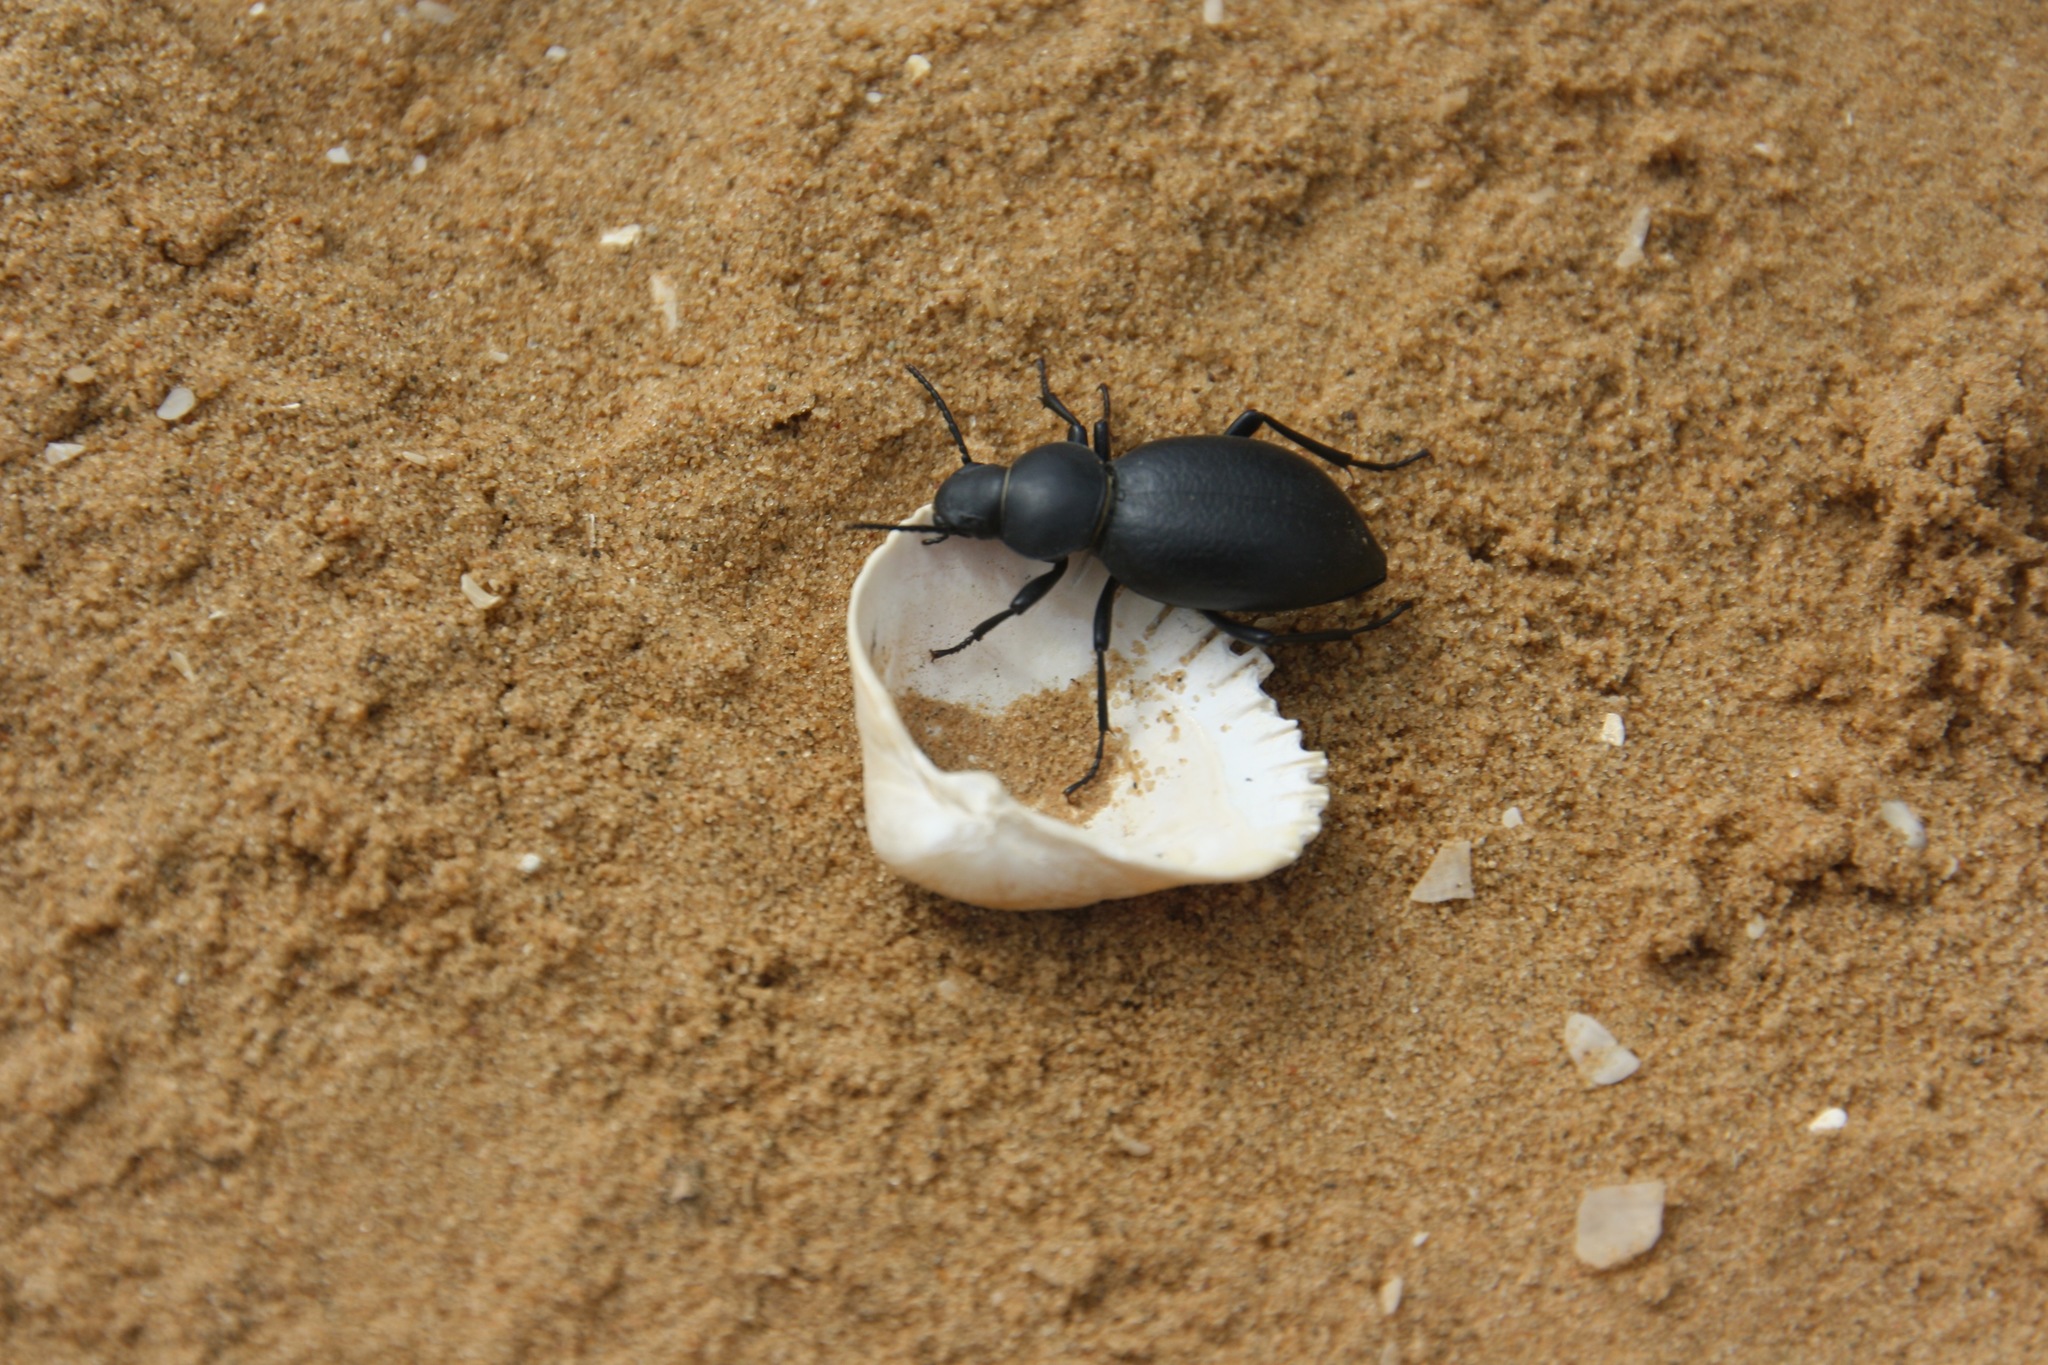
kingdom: Animalia
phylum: Arthropoda
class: Insecta
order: Coleoptera
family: Tenebrionidae
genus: Tentyria
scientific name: Tentyria nomas
